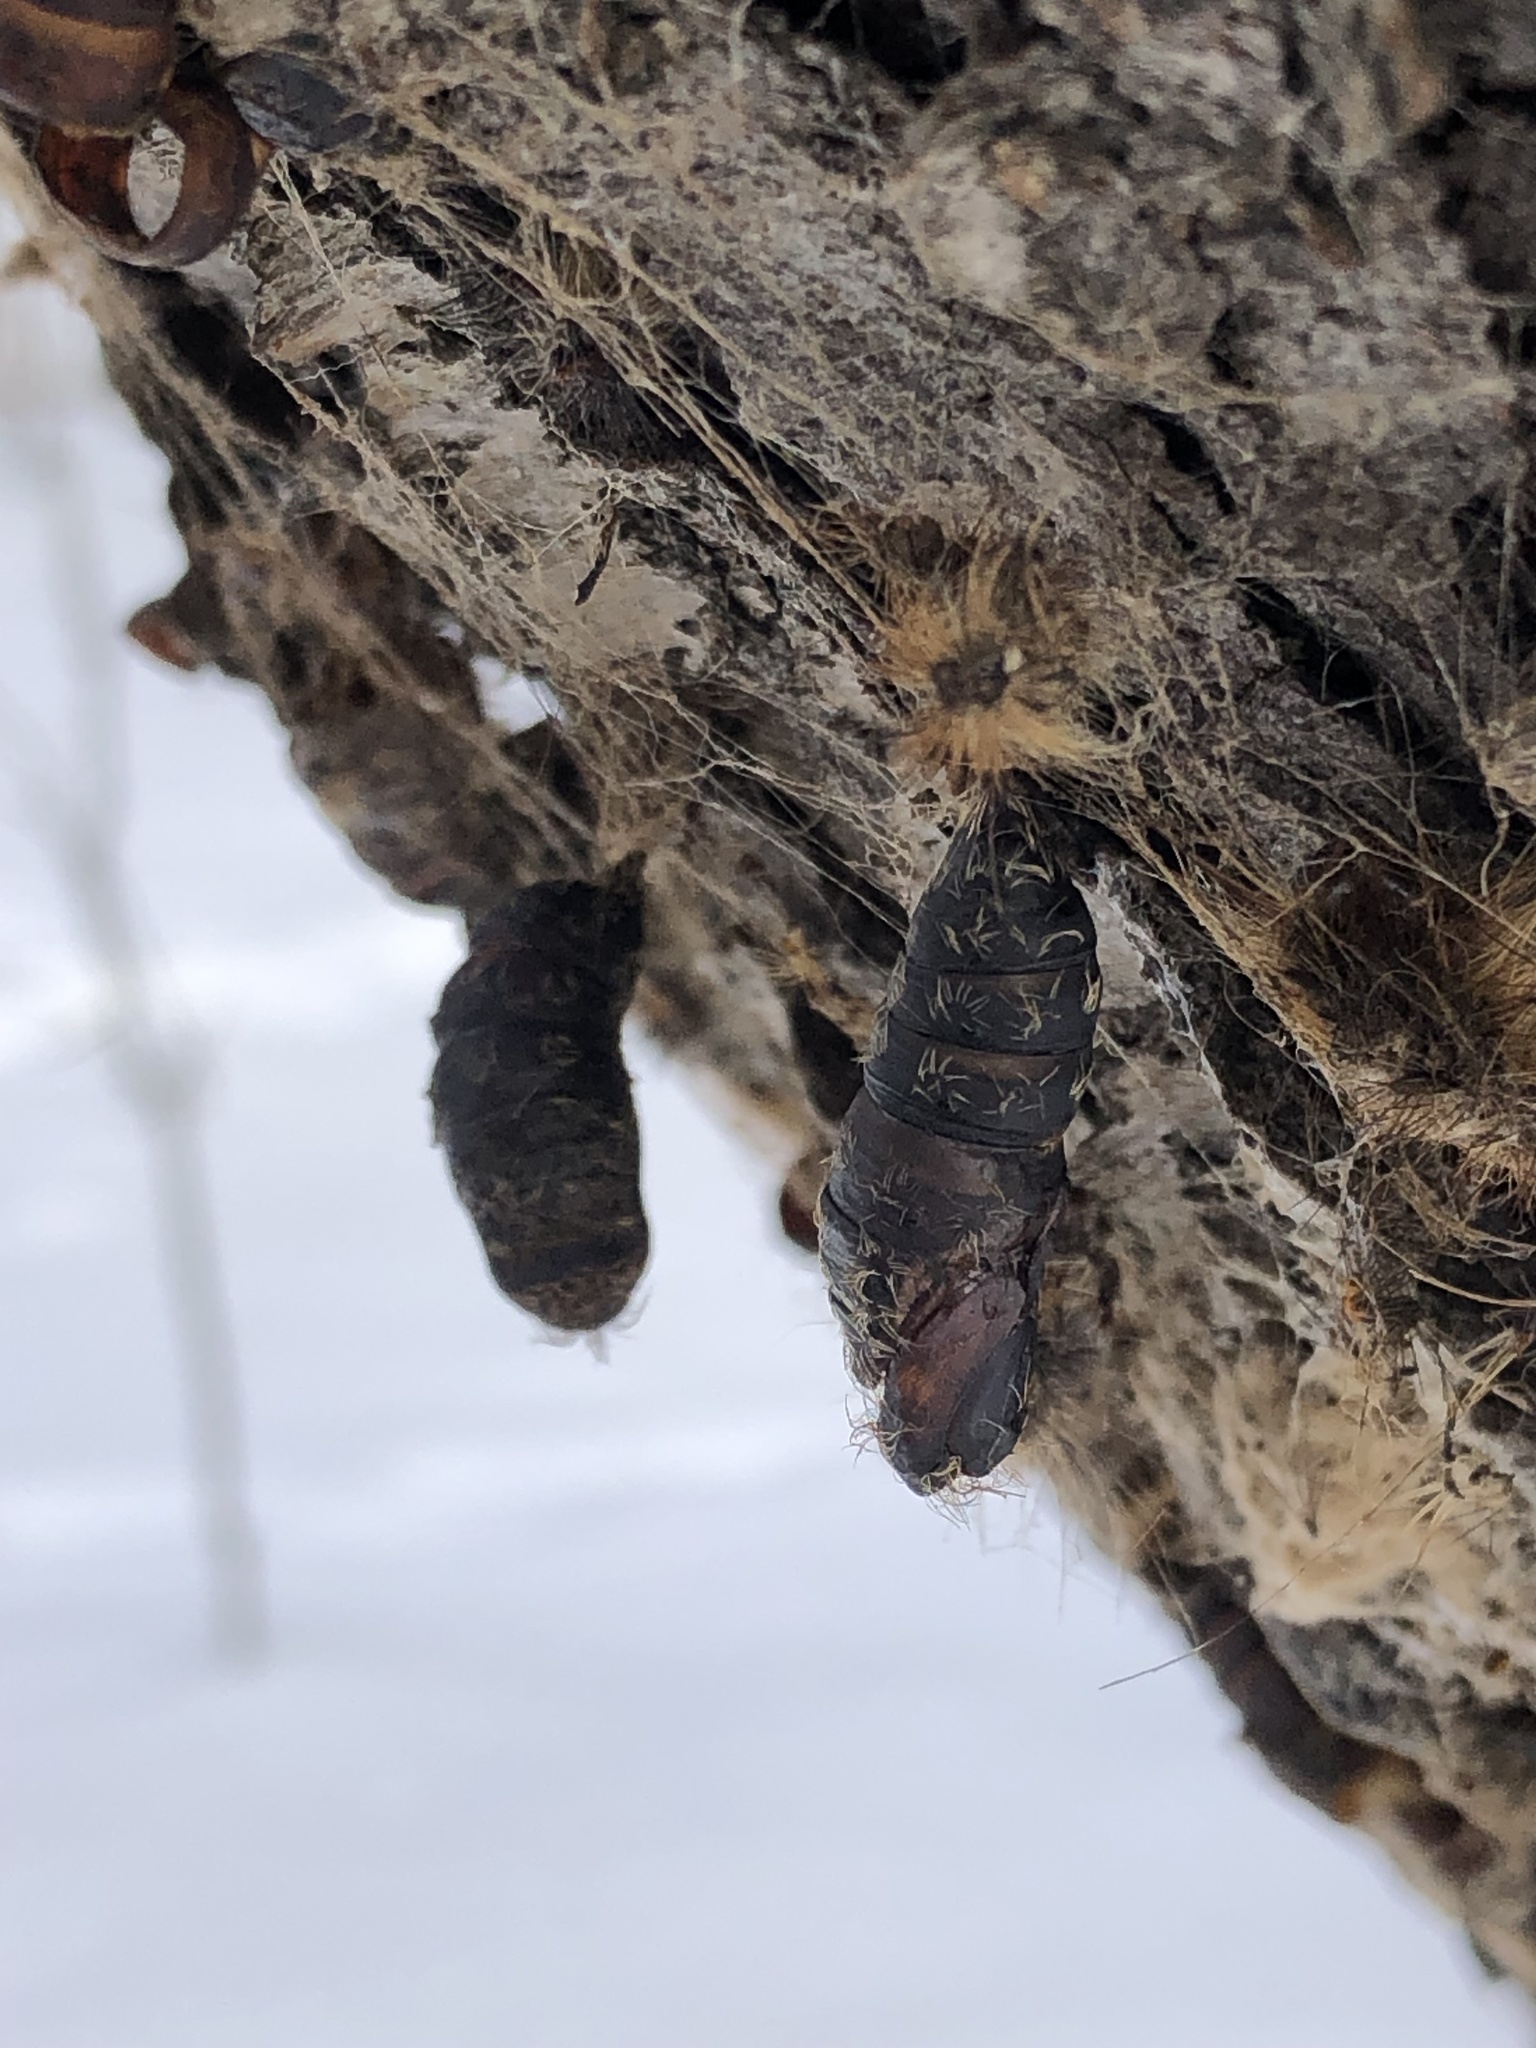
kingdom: Animalia
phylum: Arthropoda
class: Insecta
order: Lepidoptera
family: Erebidae
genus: Lymantria
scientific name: Lymantria dispar
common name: Gypsy moth
